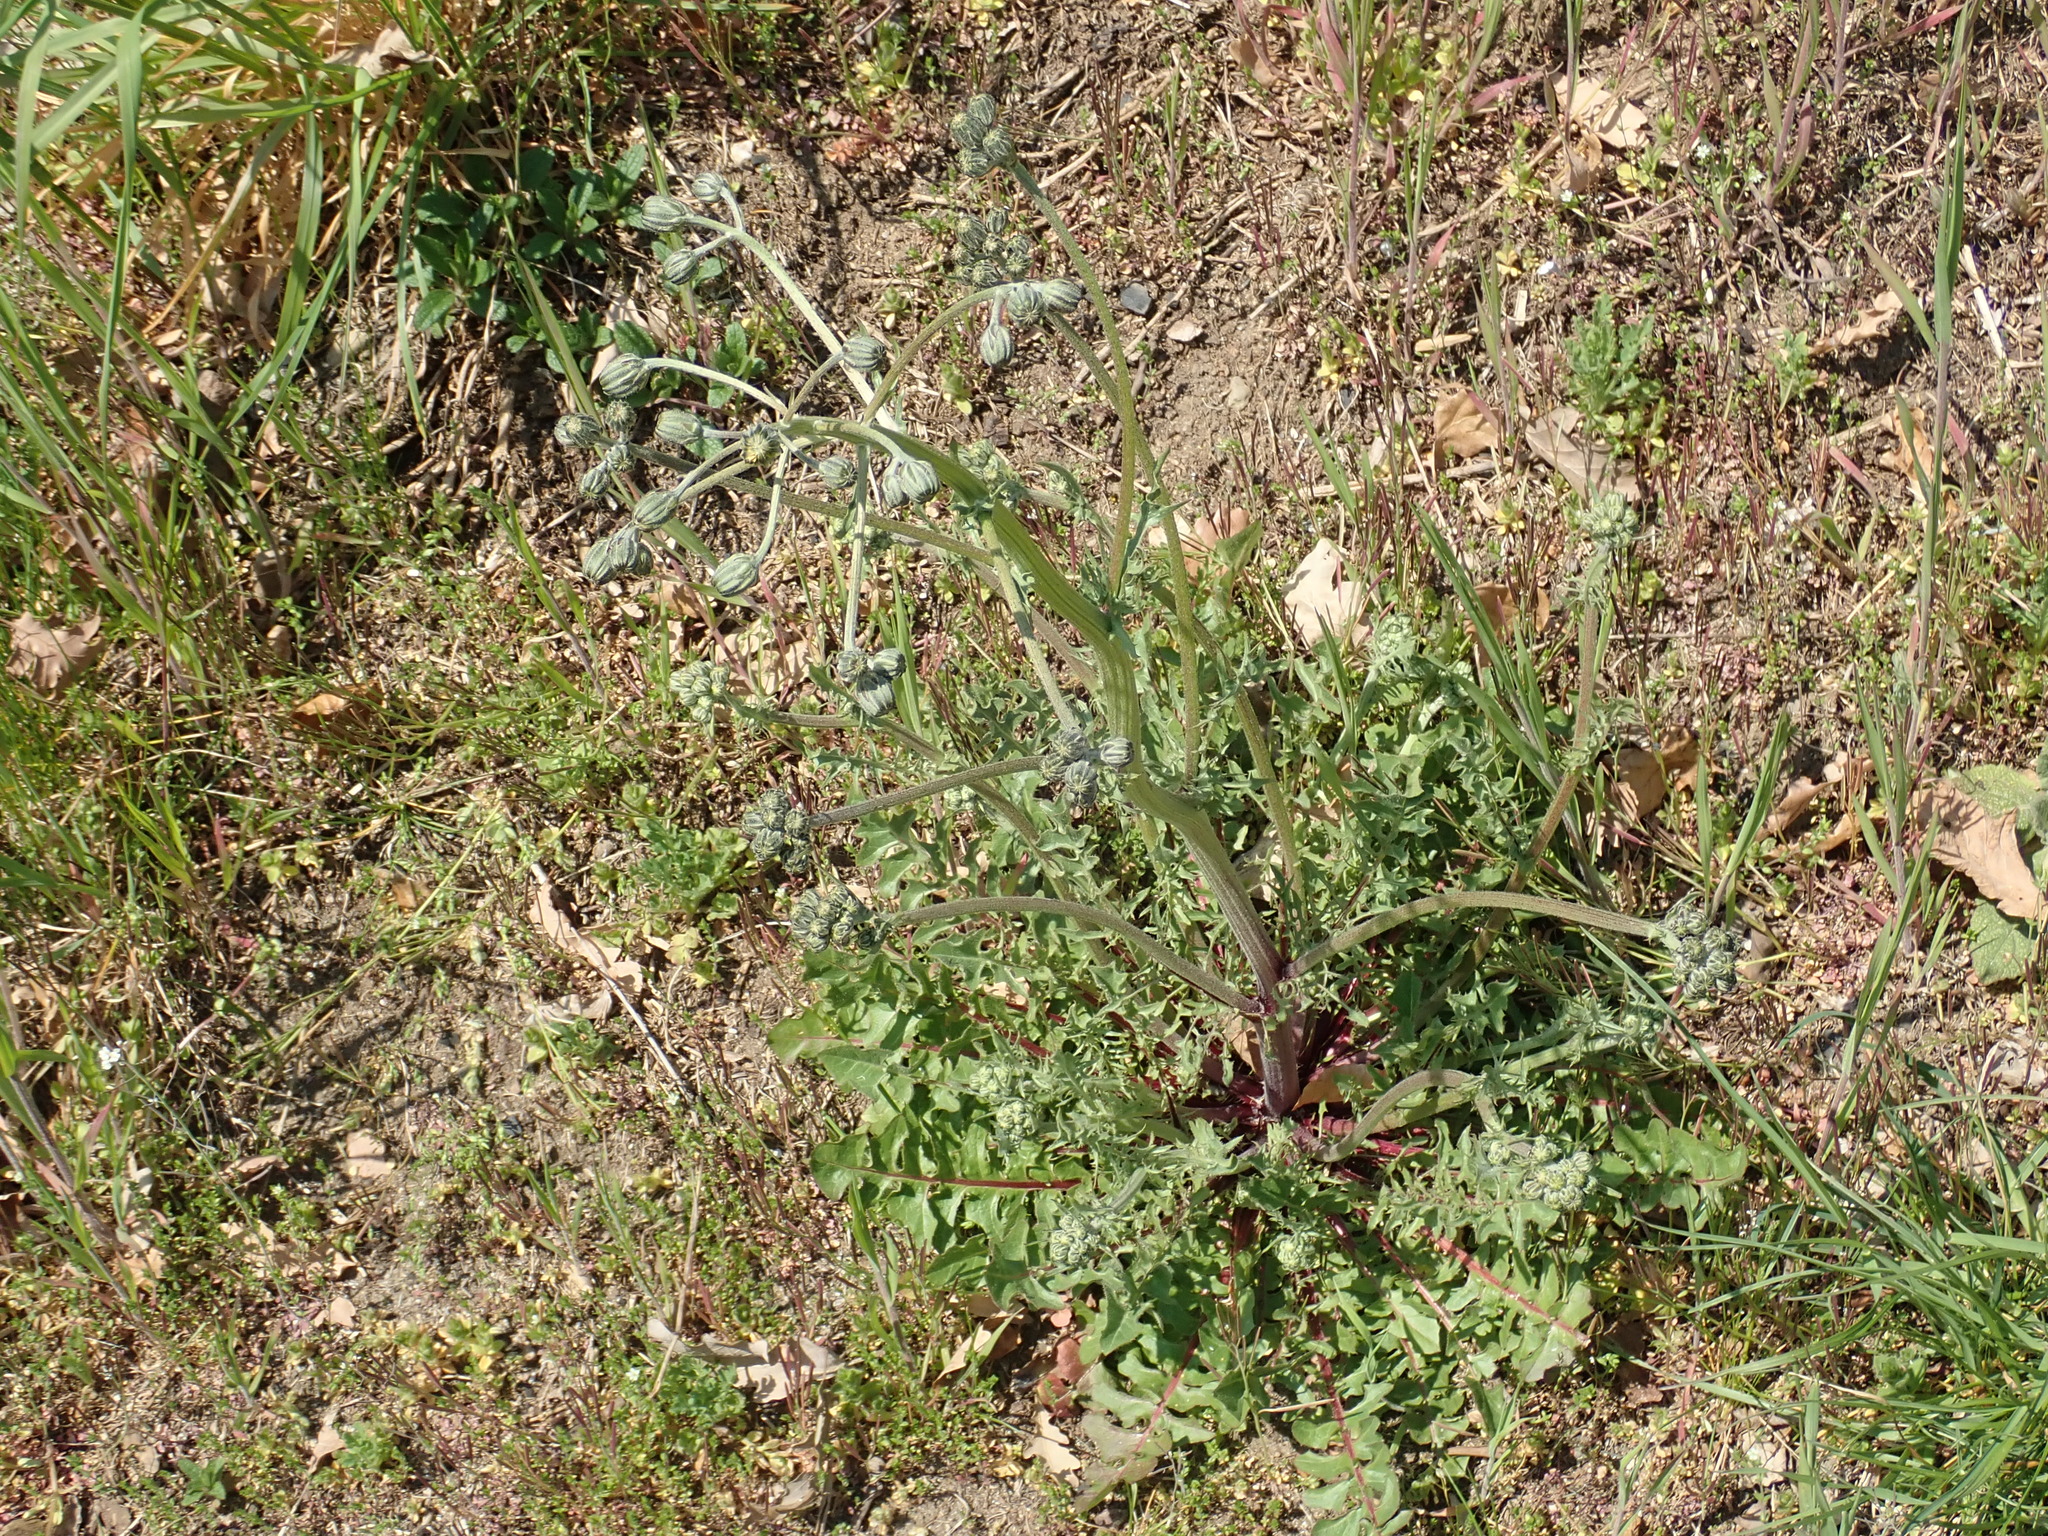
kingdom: Plantae
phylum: Tracheophyta
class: Magnoliopsida
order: Asterales
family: Asteraceae
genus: Crepis
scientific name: Crepis vesicaria
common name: Beaked hawksbeard
